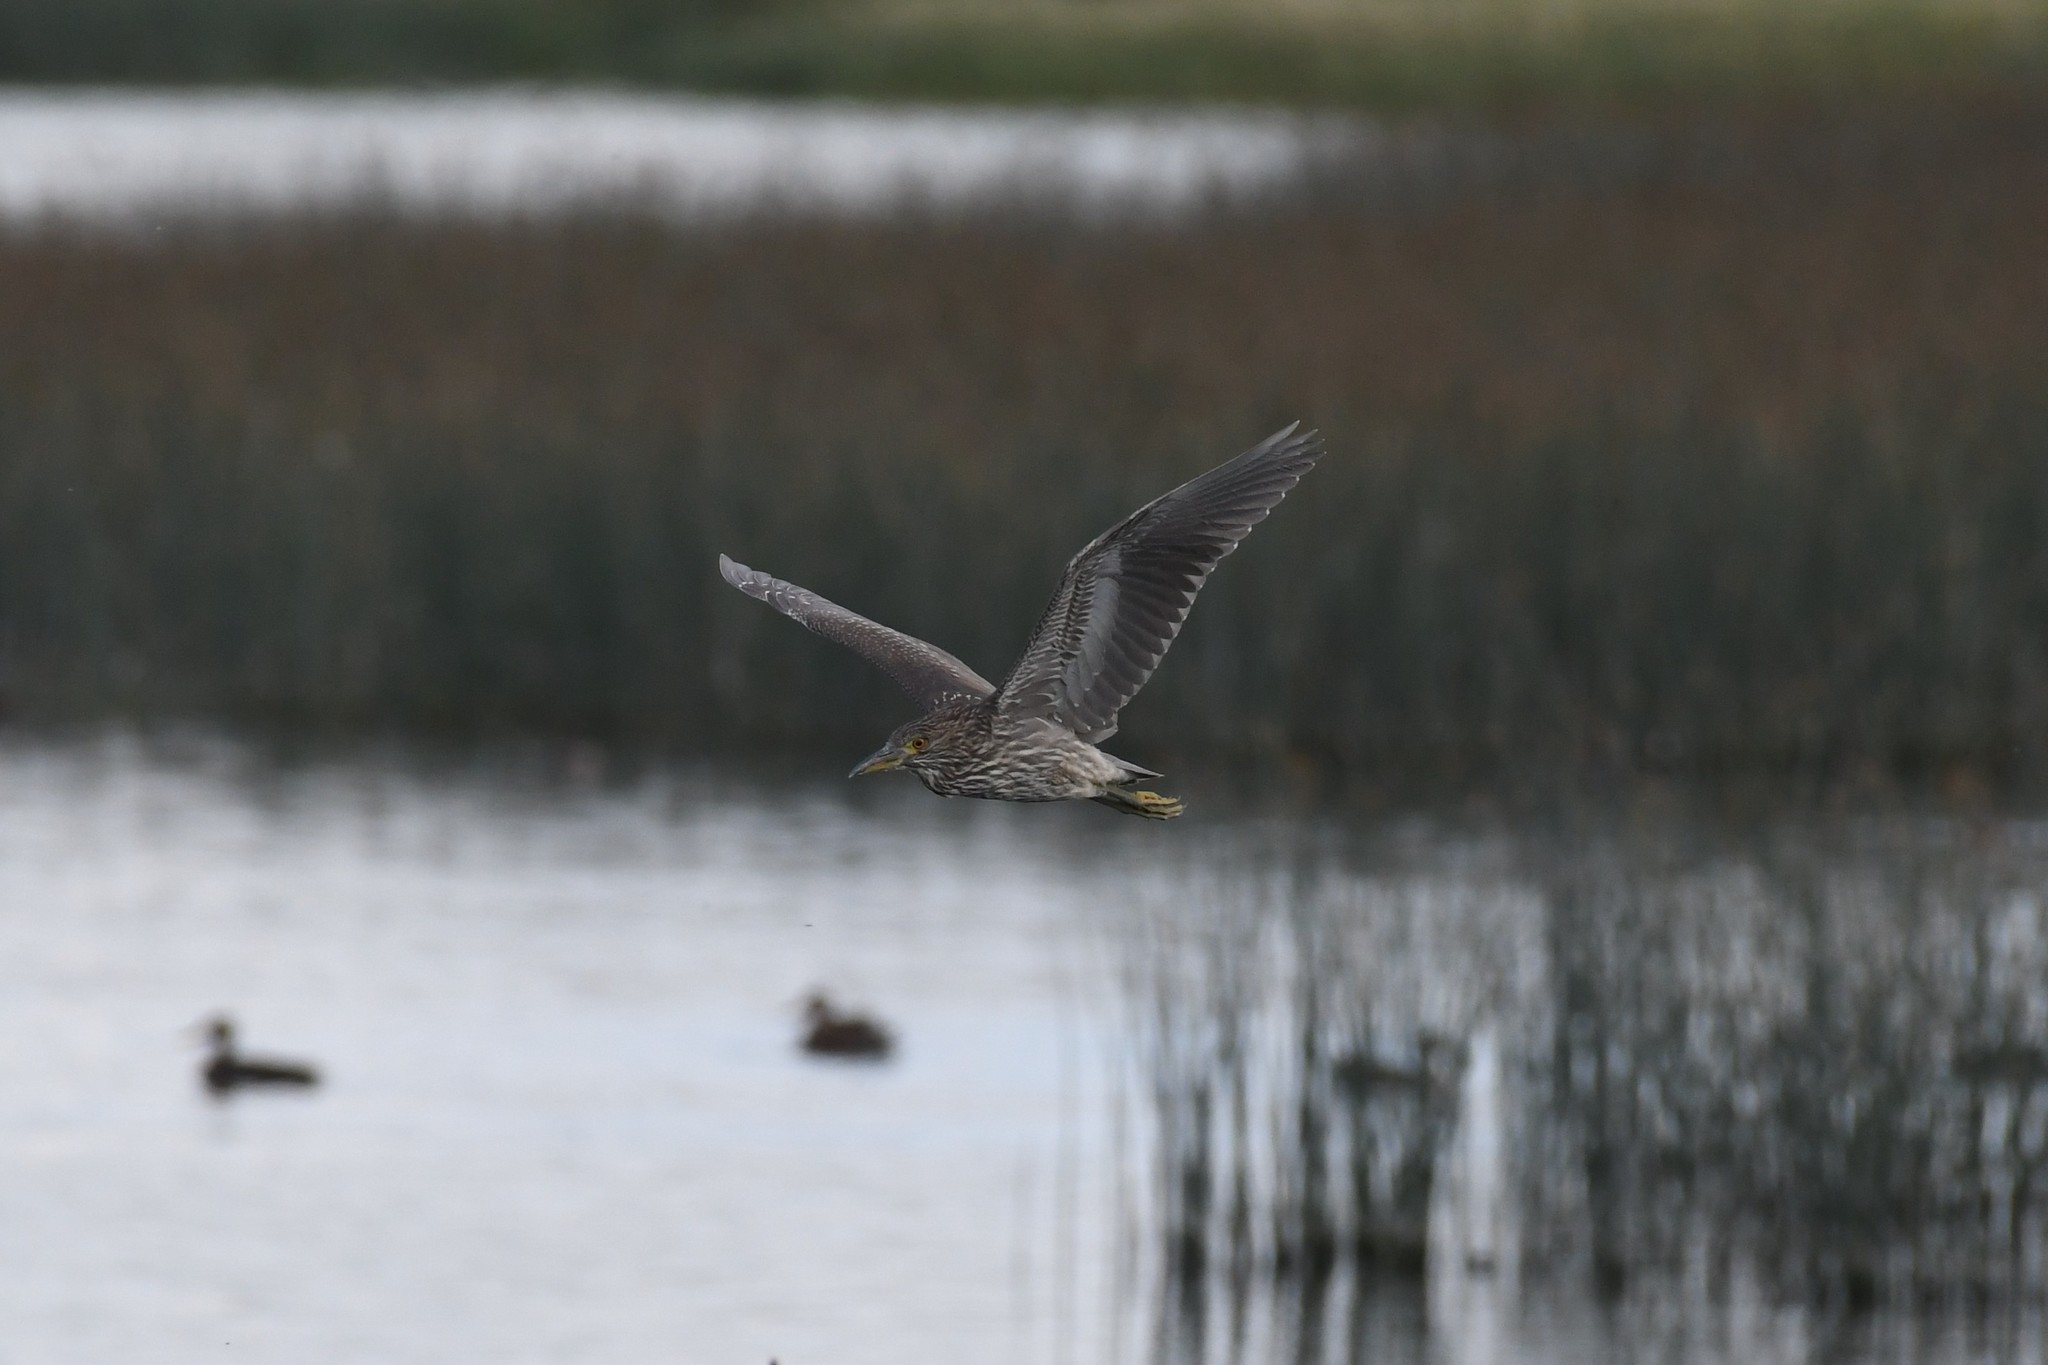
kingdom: Animalia
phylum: Chordata
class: Aves
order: Pelecaniformes
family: Ardeidae
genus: Nycticorax
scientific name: Nycticorax nycticorax
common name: Black-crowned night heron
